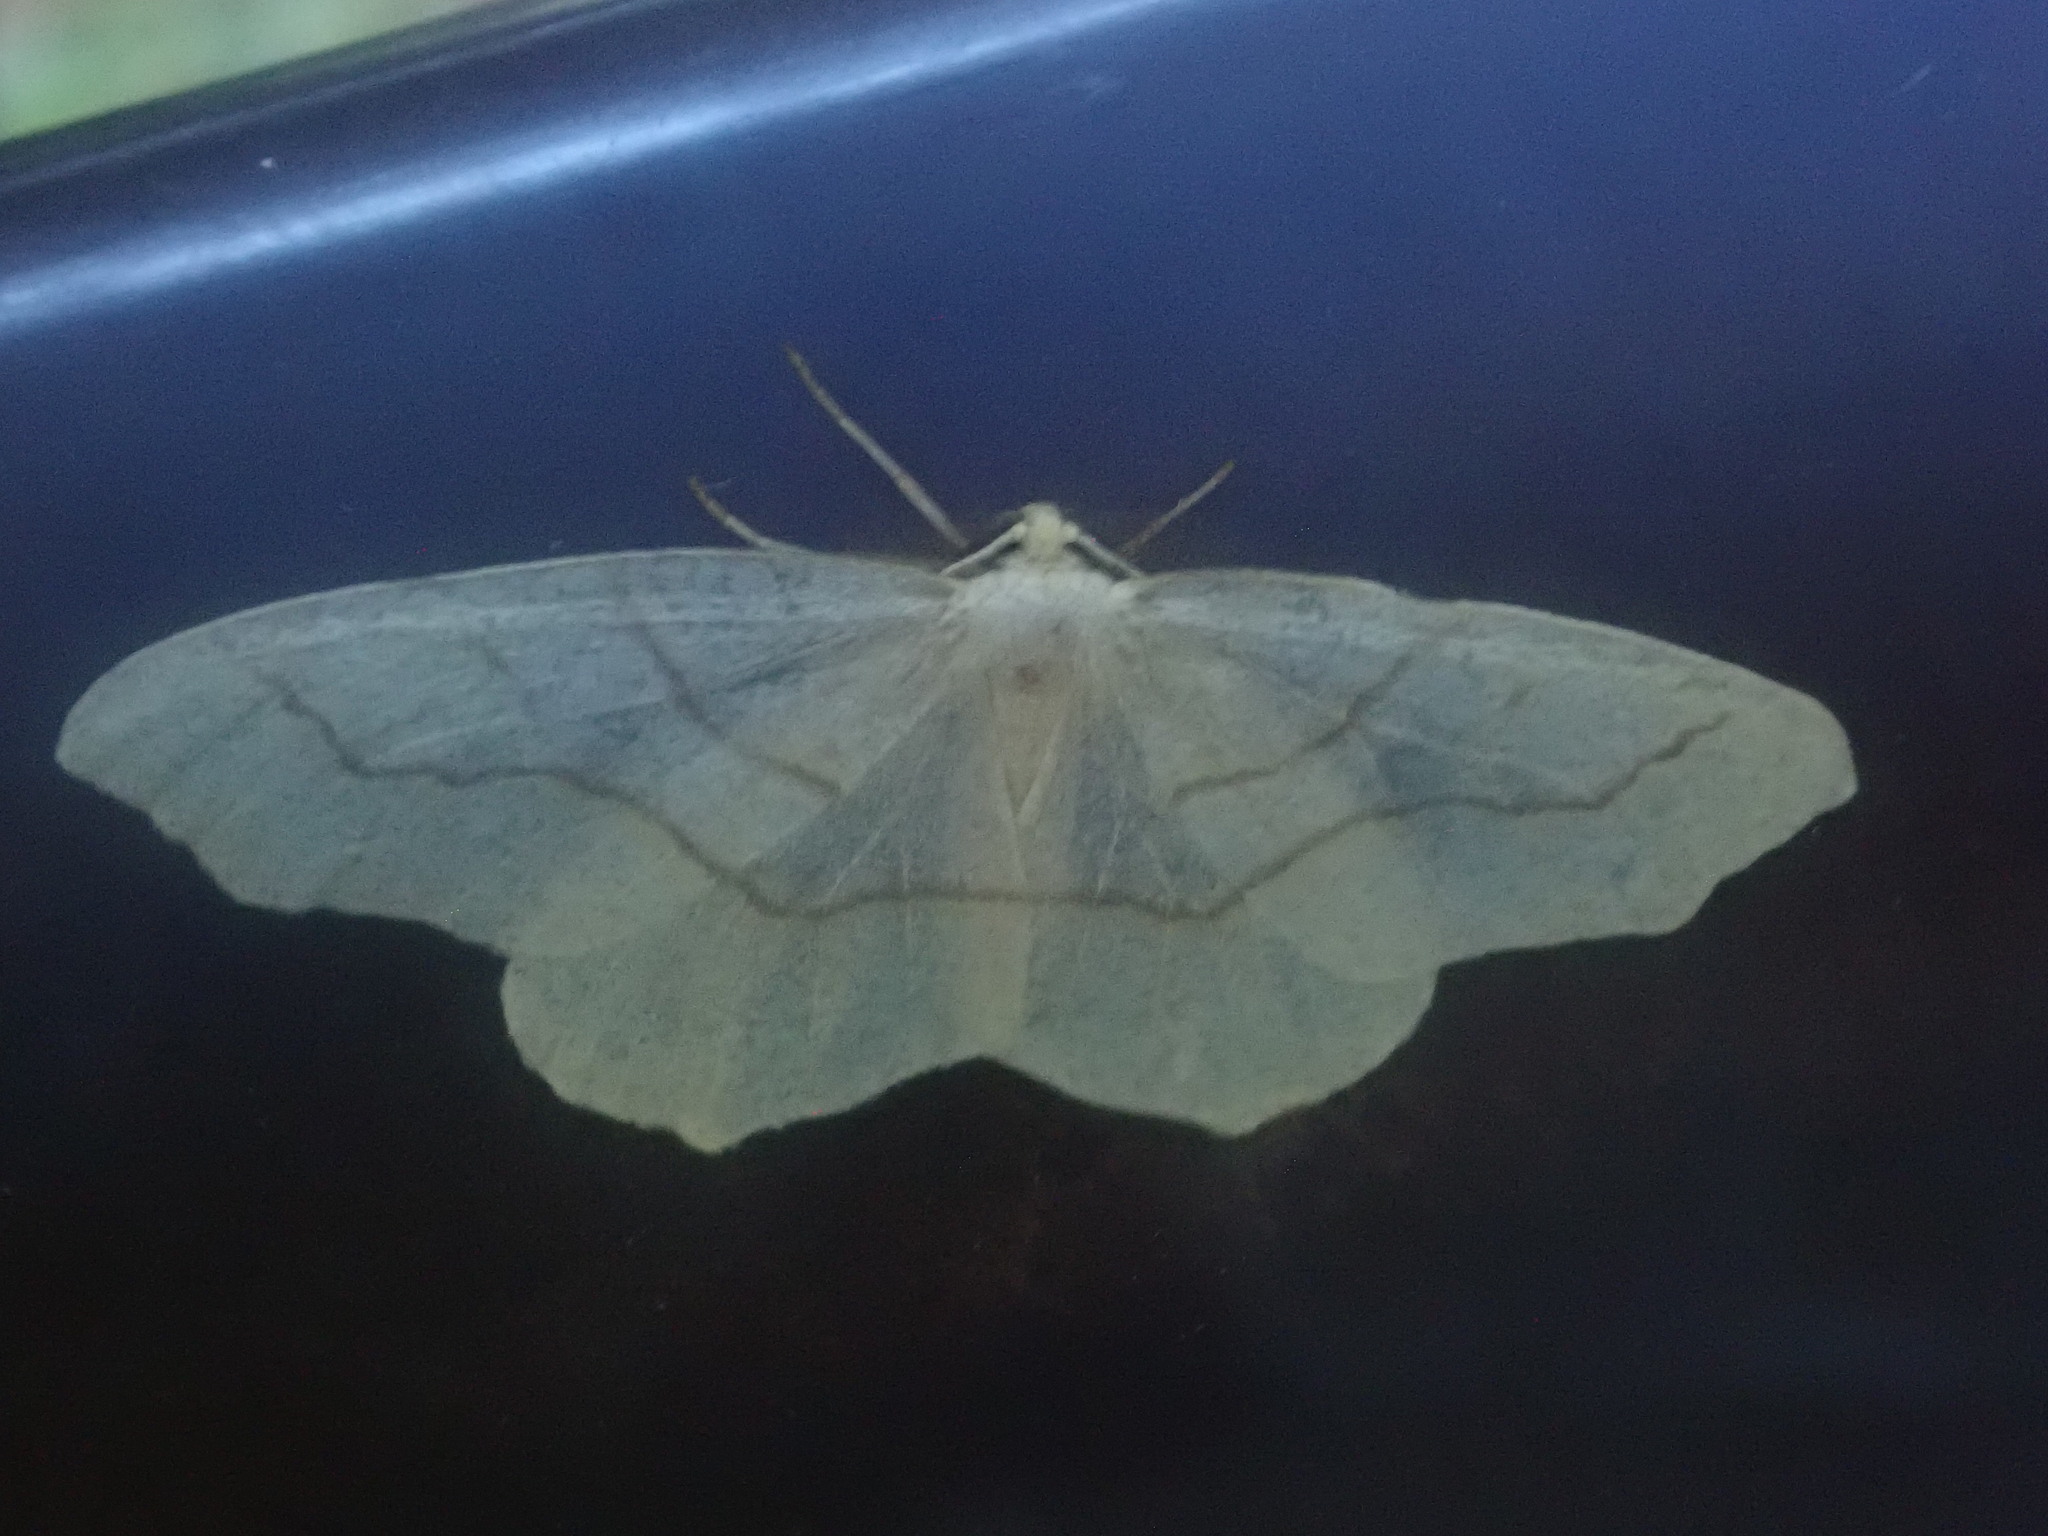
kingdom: Animalia
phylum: Arthropoda
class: Insecta
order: Lepidoptera
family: Geometridae
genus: Lambdina
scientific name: Lambdina fiscellaria
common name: Hemlock looper
